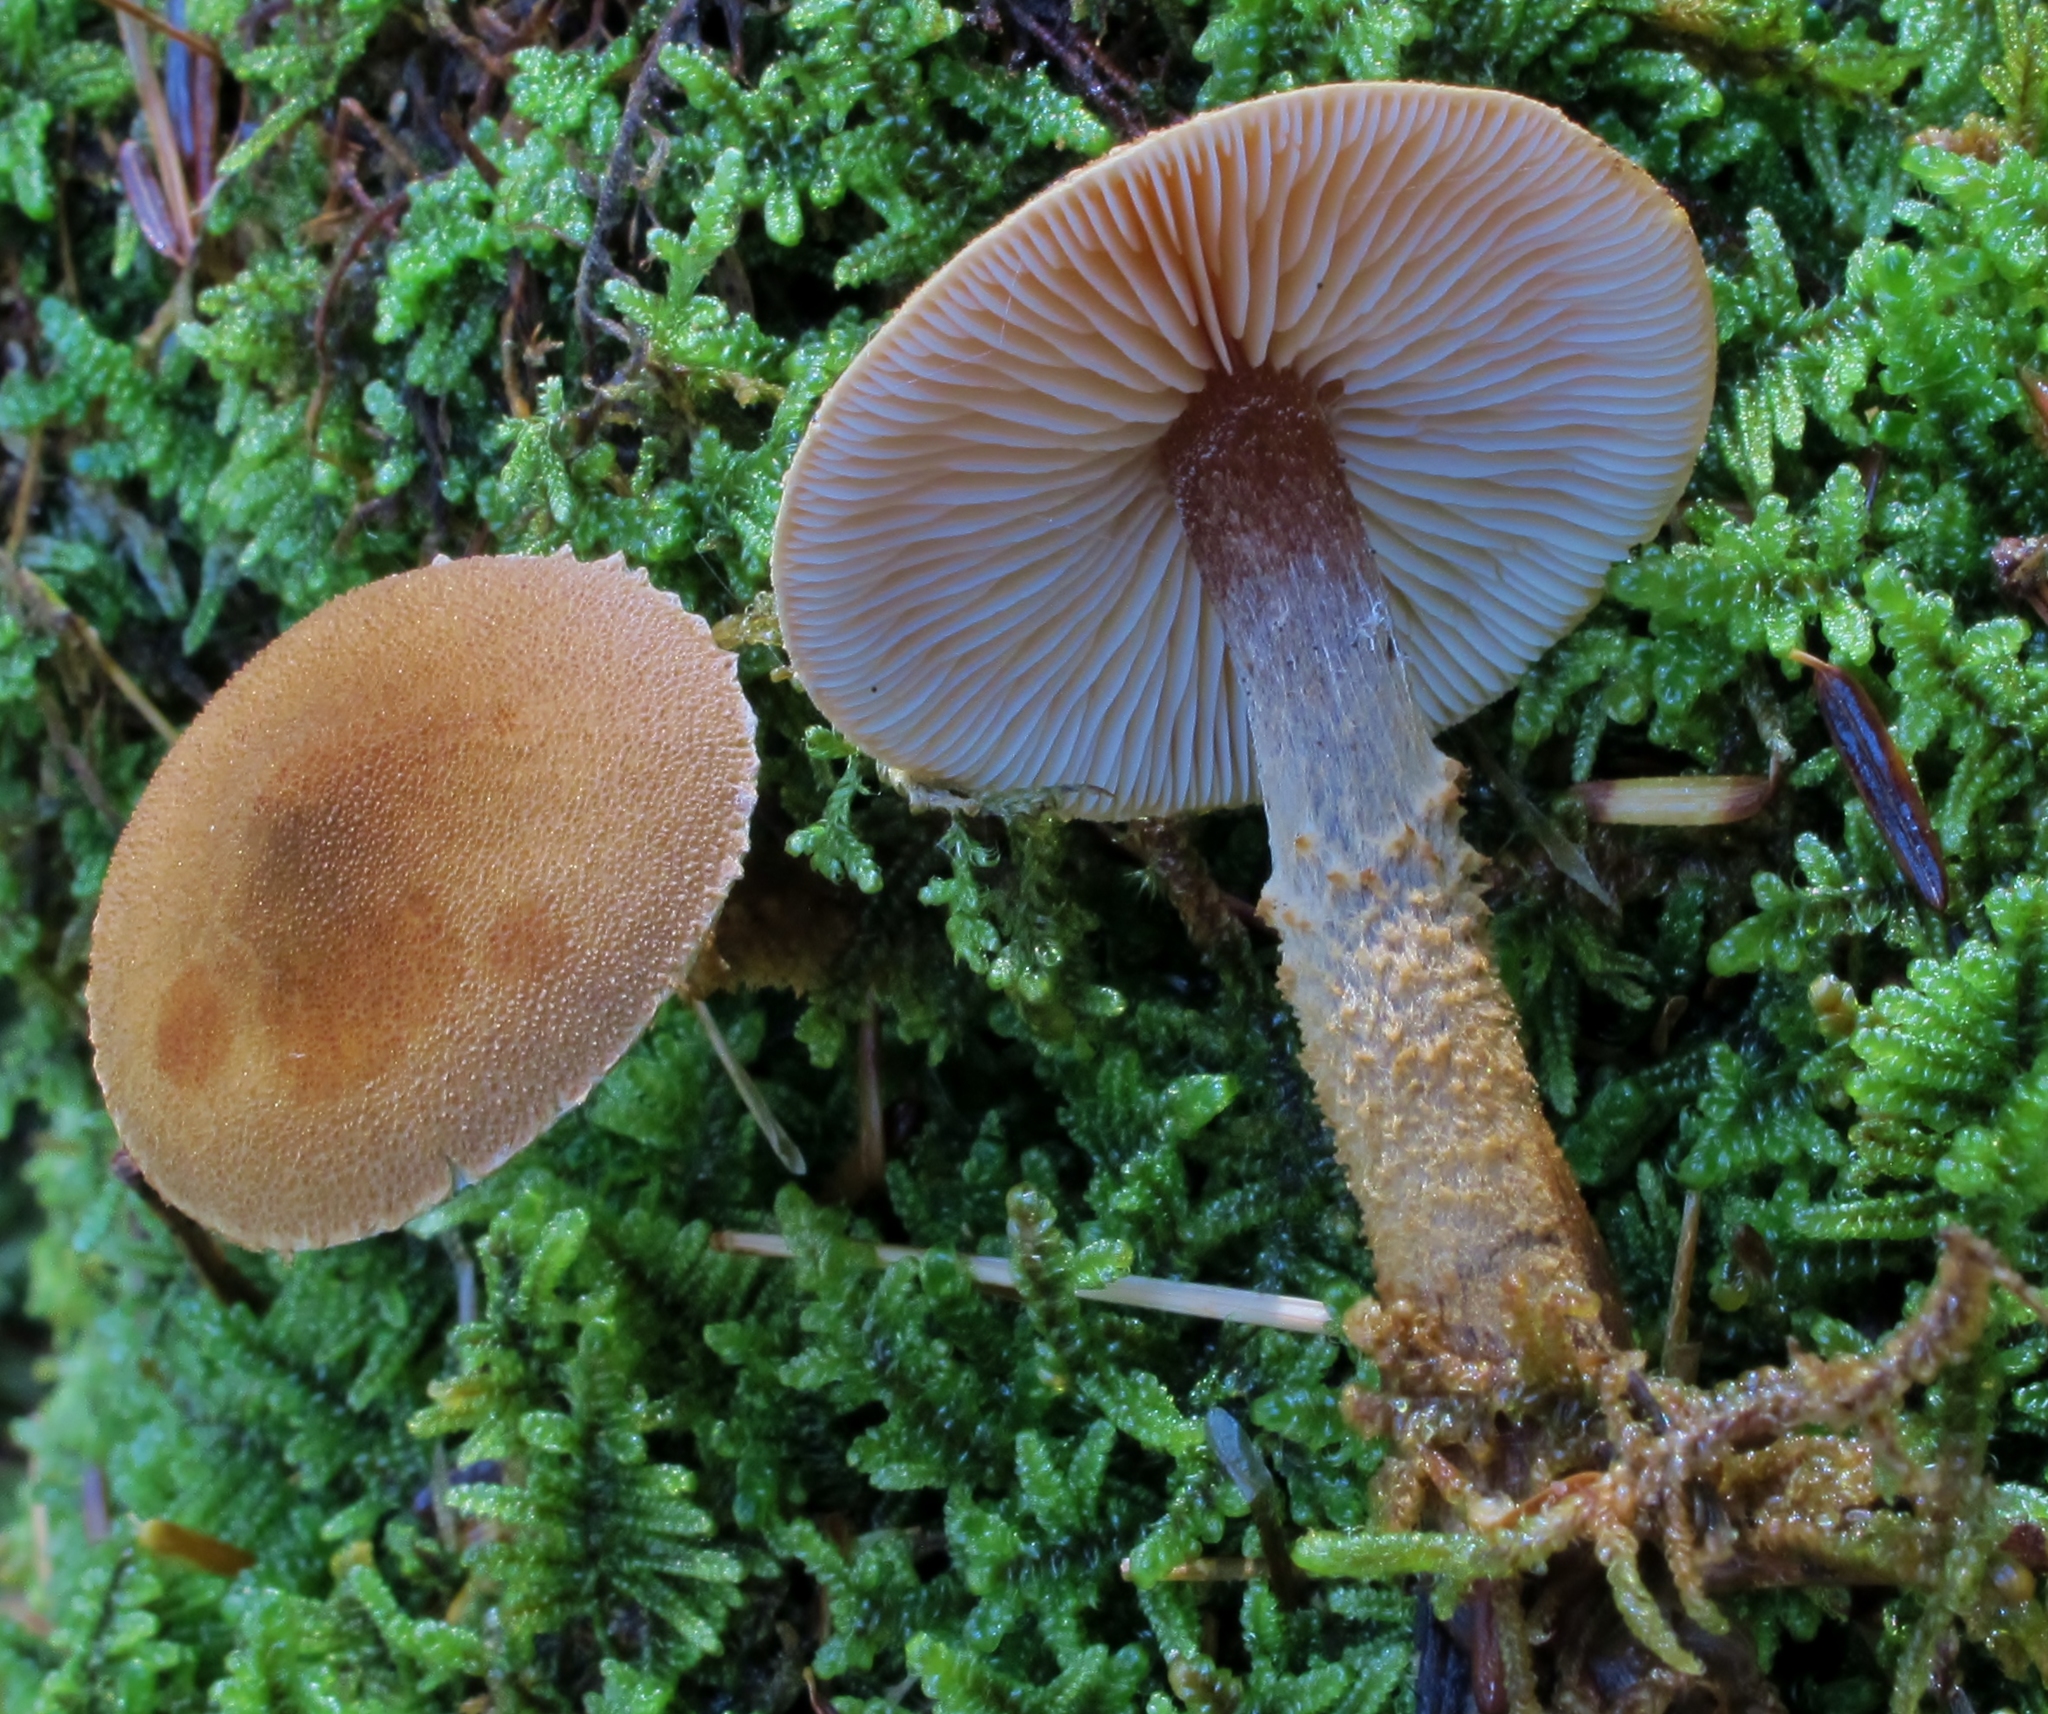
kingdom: Fungi
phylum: Basidiomycota
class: Agaricomycetes
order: Agaricales
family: Tricholomataceae
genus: Cystoderma
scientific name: Cystoderma jasonis
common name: Pine powdercap
